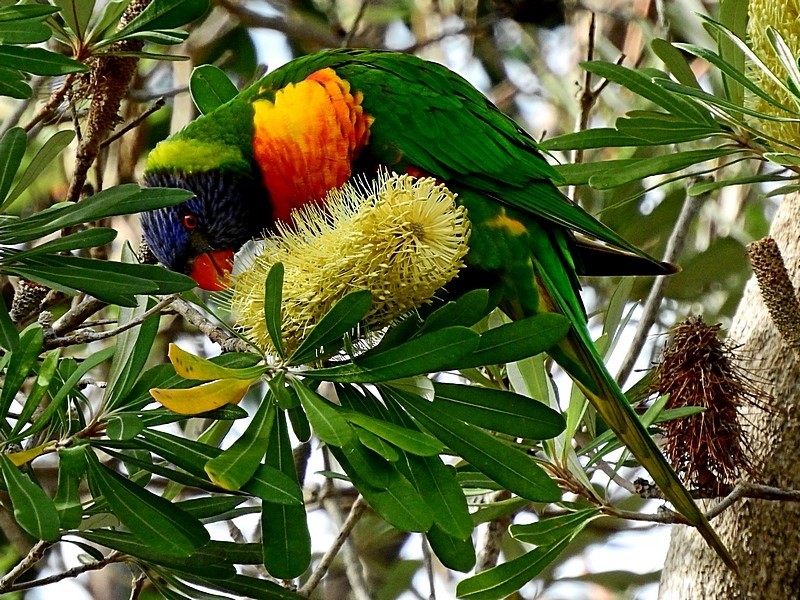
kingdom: Animalia
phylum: Chordata
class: Aves
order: Psittaciformes
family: Psittacidae
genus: Trichoglossus
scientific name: Trichoglossus haematodus
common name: Coconut lorikeet
